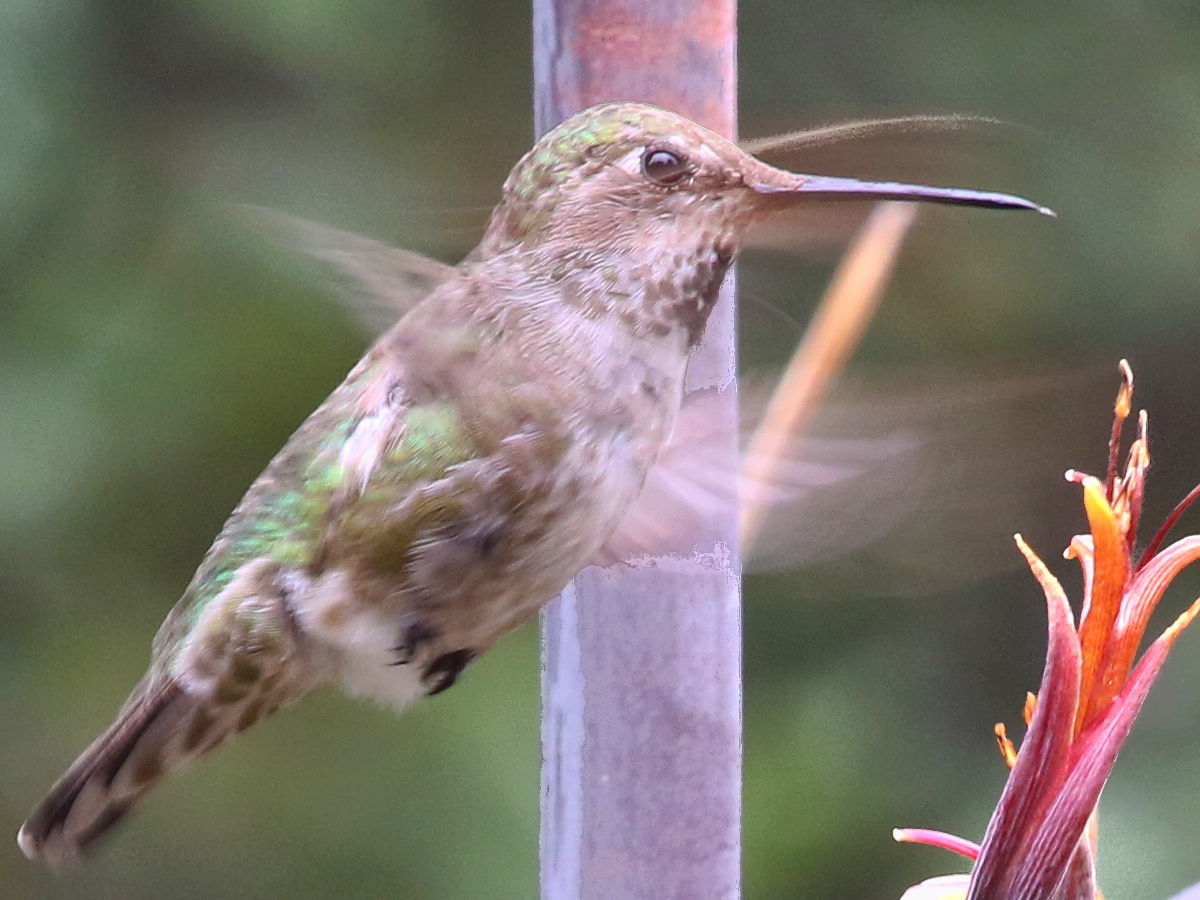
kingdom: Animalia
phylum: Chordata
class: Aves
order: Apodiformes
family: Trochilidae
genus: Calypte
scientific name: Calypte anna
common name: Anna's hummingbird
